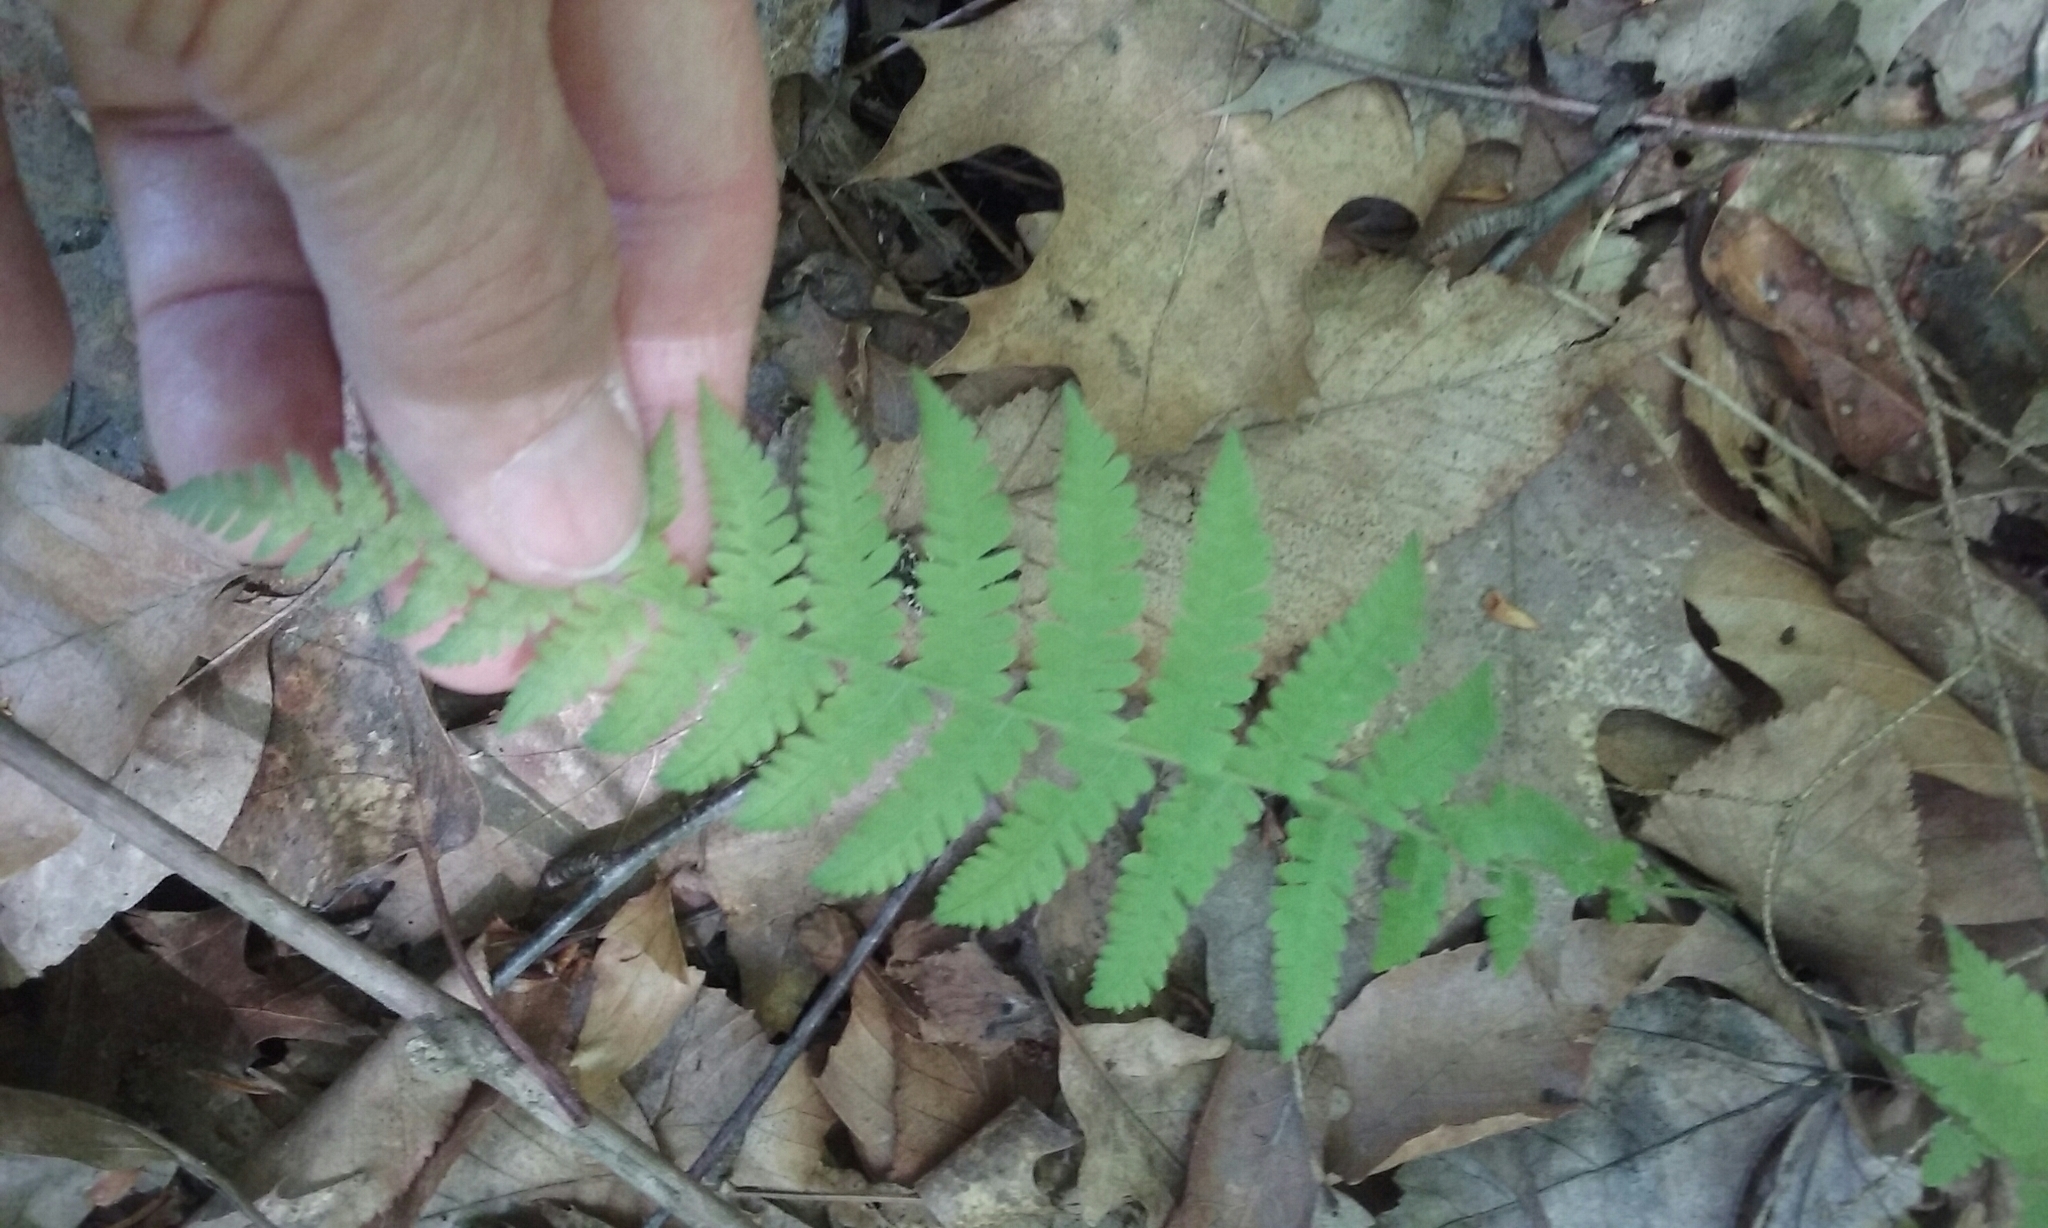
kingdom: Plantae
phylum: Tracheophyta
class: Polypodiopsida
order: Polypodiales
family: Thelypteridaceae
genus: Amauropelta
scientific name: Amauropelta noveboracensis
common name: New york fern
